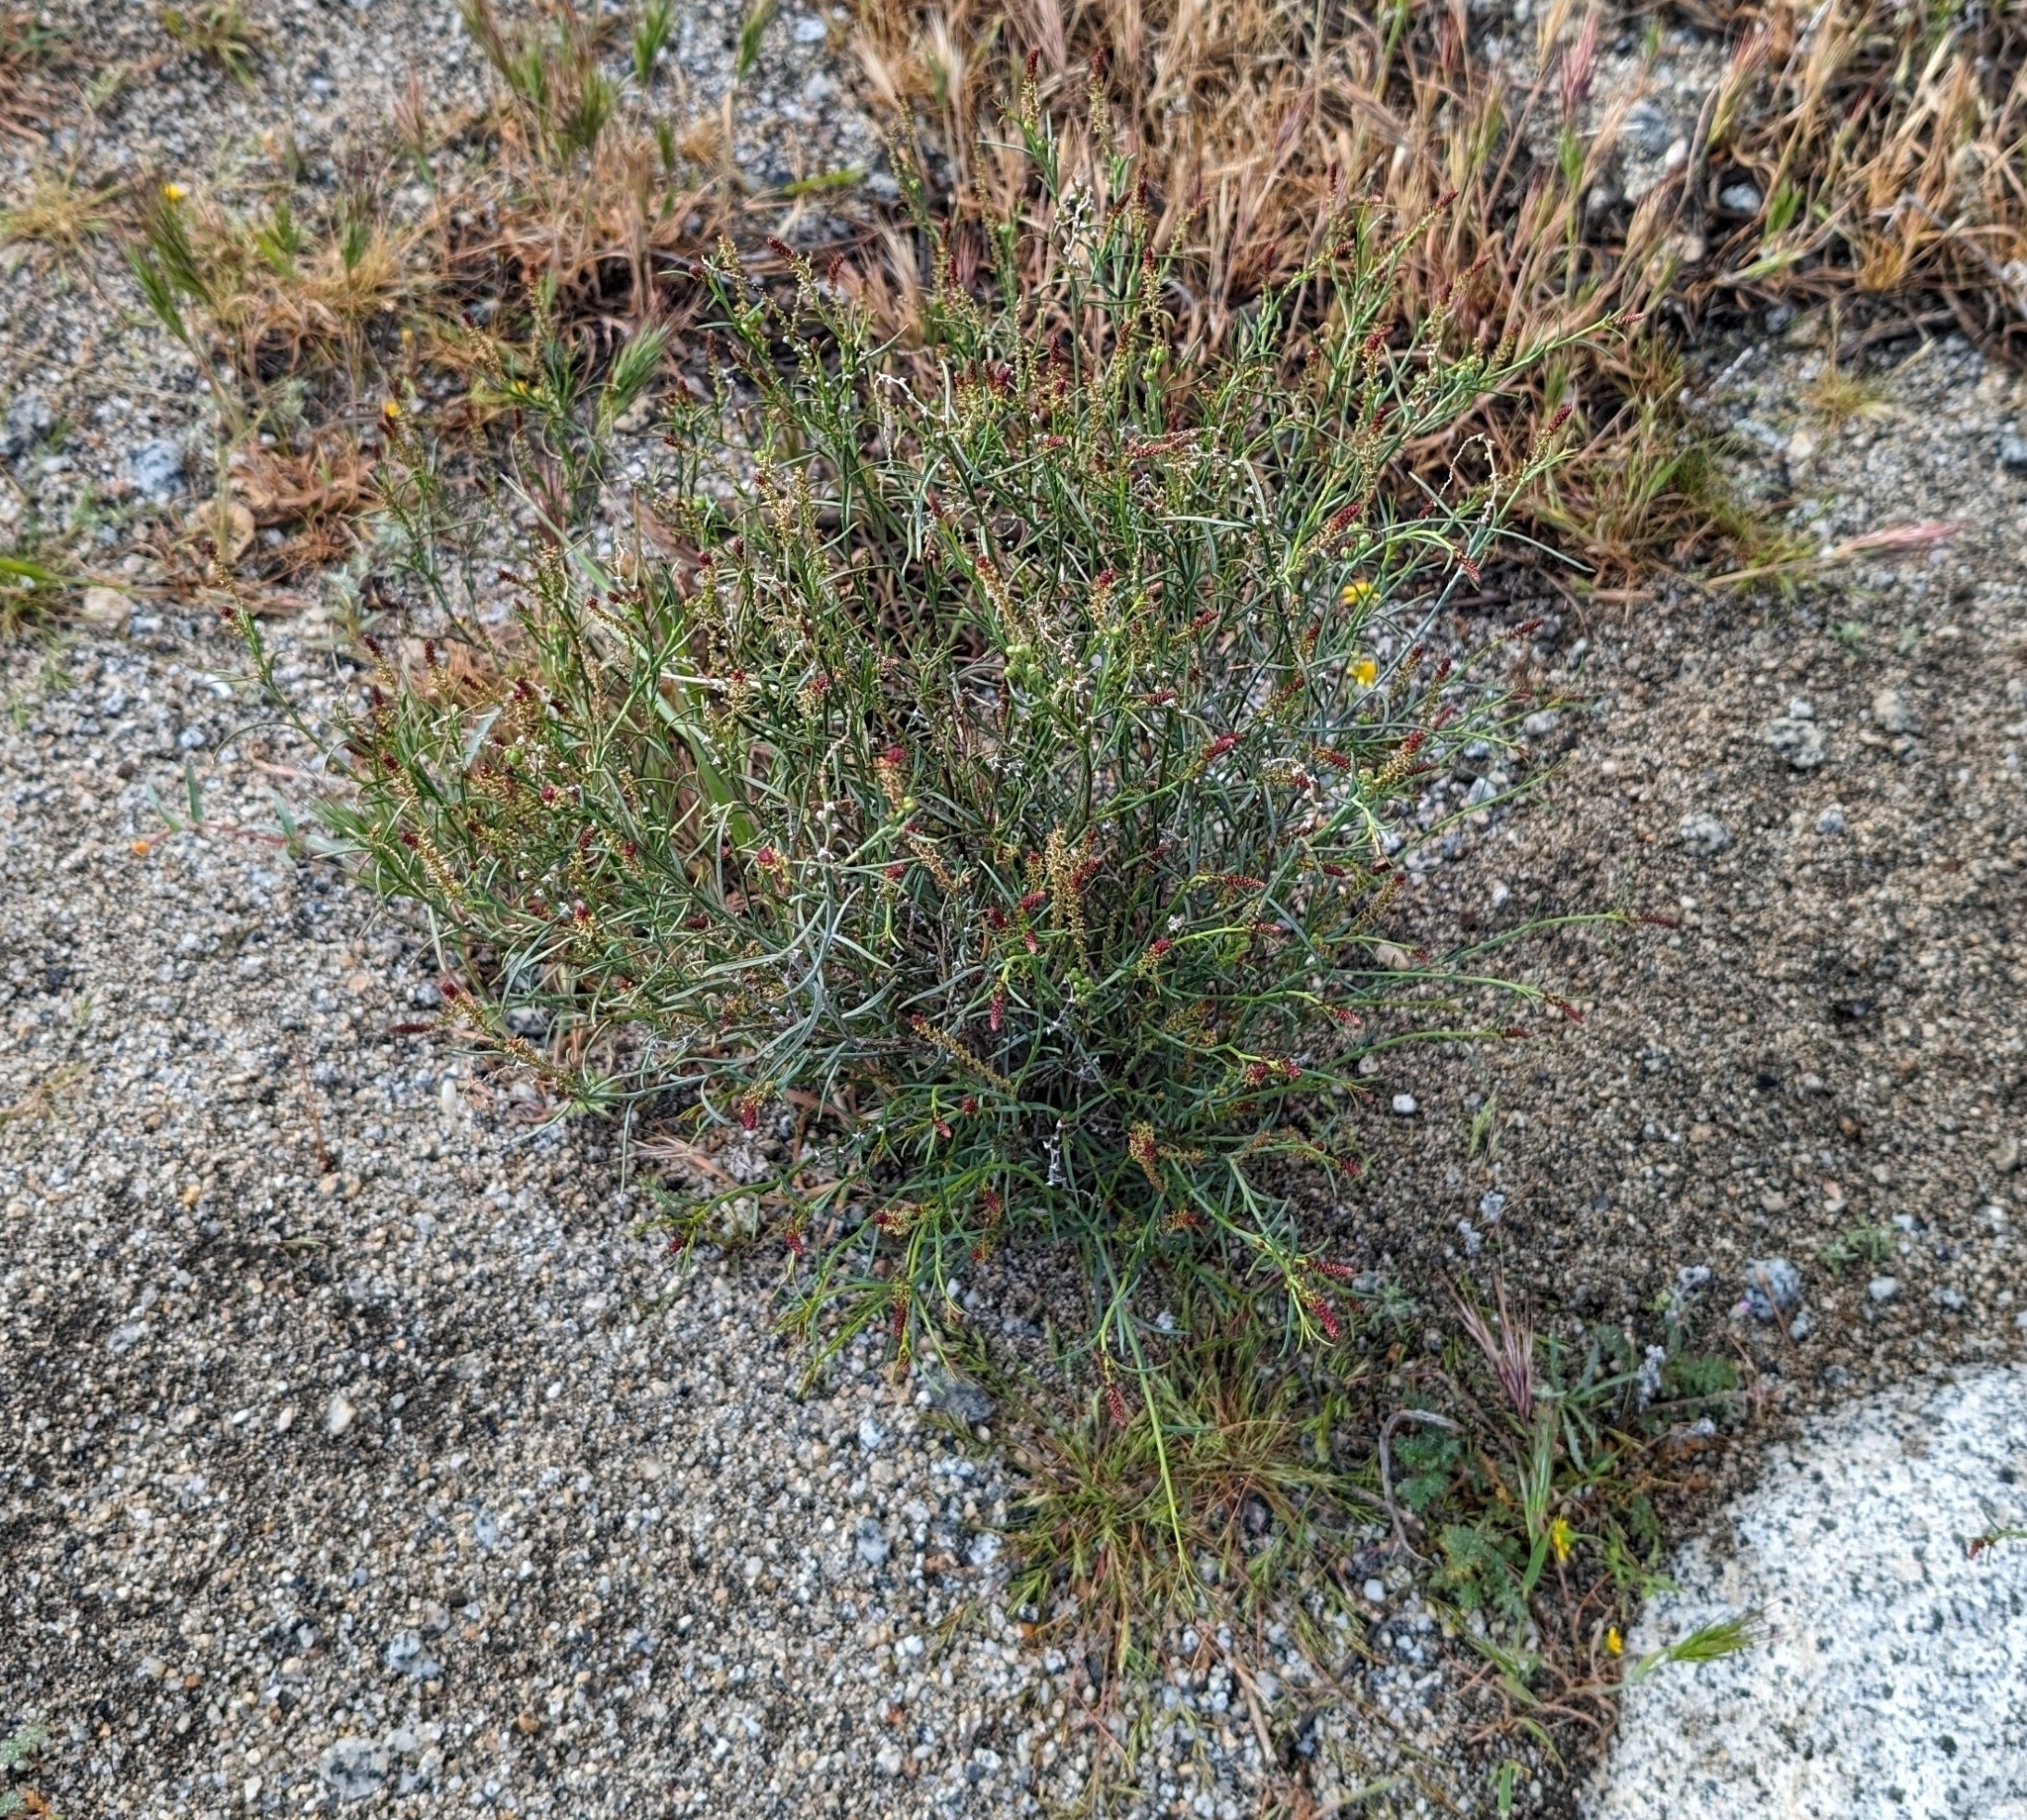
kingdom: Plantae
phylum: Tracheophyta
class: Magnoliopsida
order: Malpighiales
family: Euphorbiaceae
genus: Stillingia
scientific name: Stillingia linearifolia
